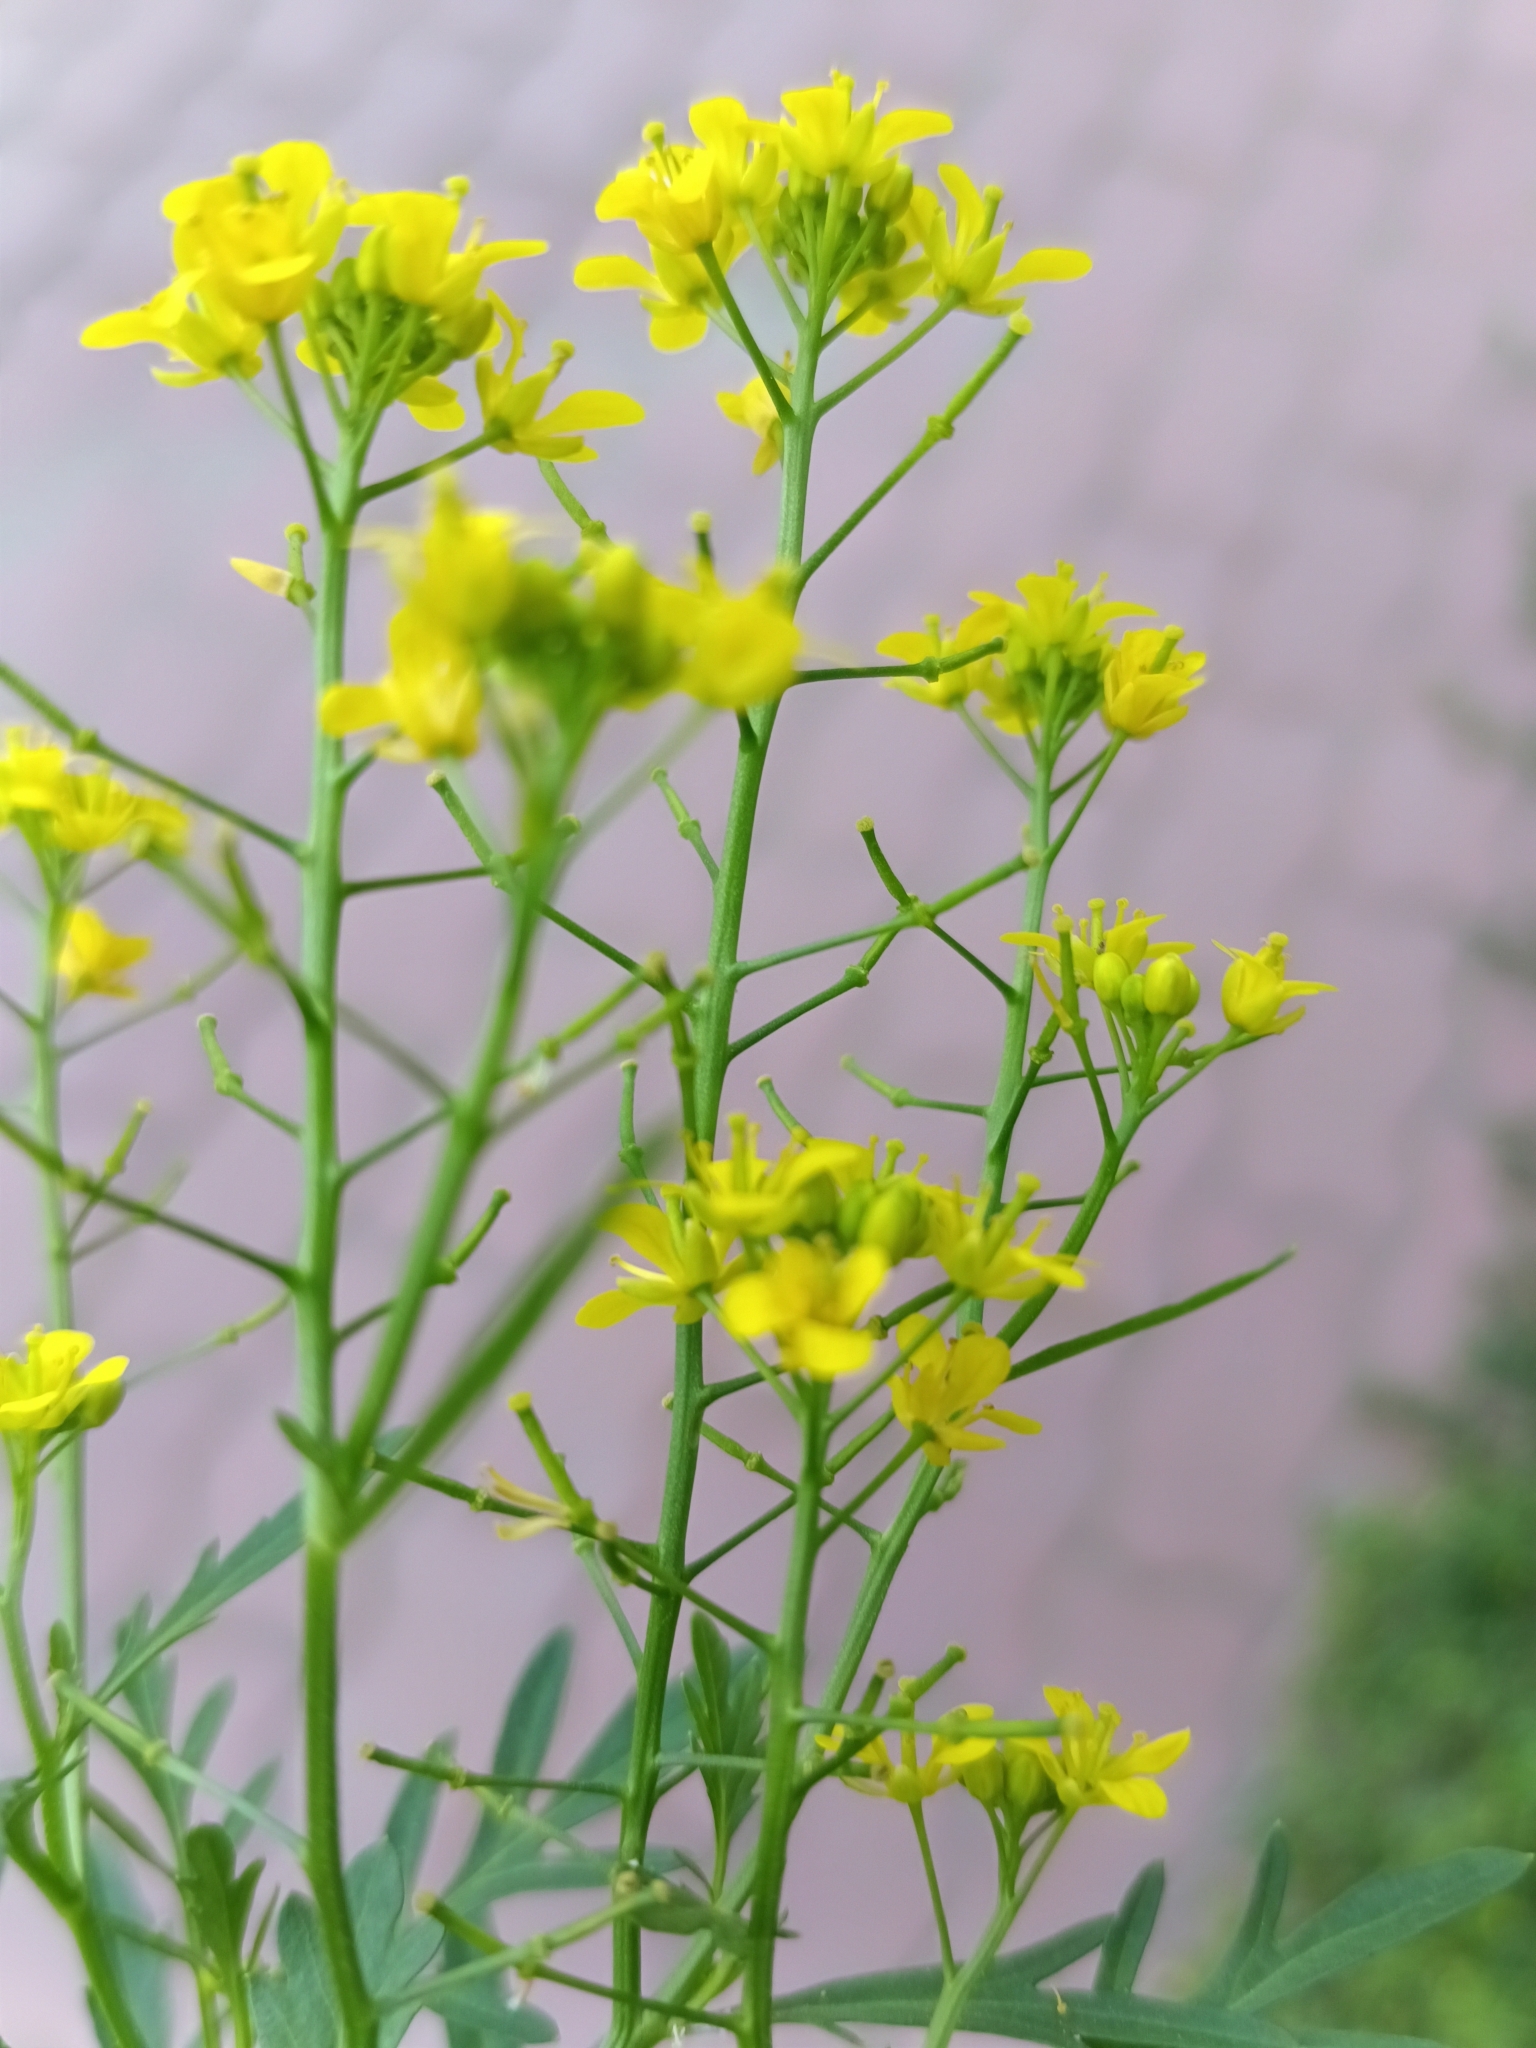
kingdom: Plantae
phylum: Tracheophyta
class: Magnoliopsida
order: Brassicales
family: Brassicaceae
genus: Rorippa
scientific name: Rorippa sylvestris
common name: Creeping yellowcress
